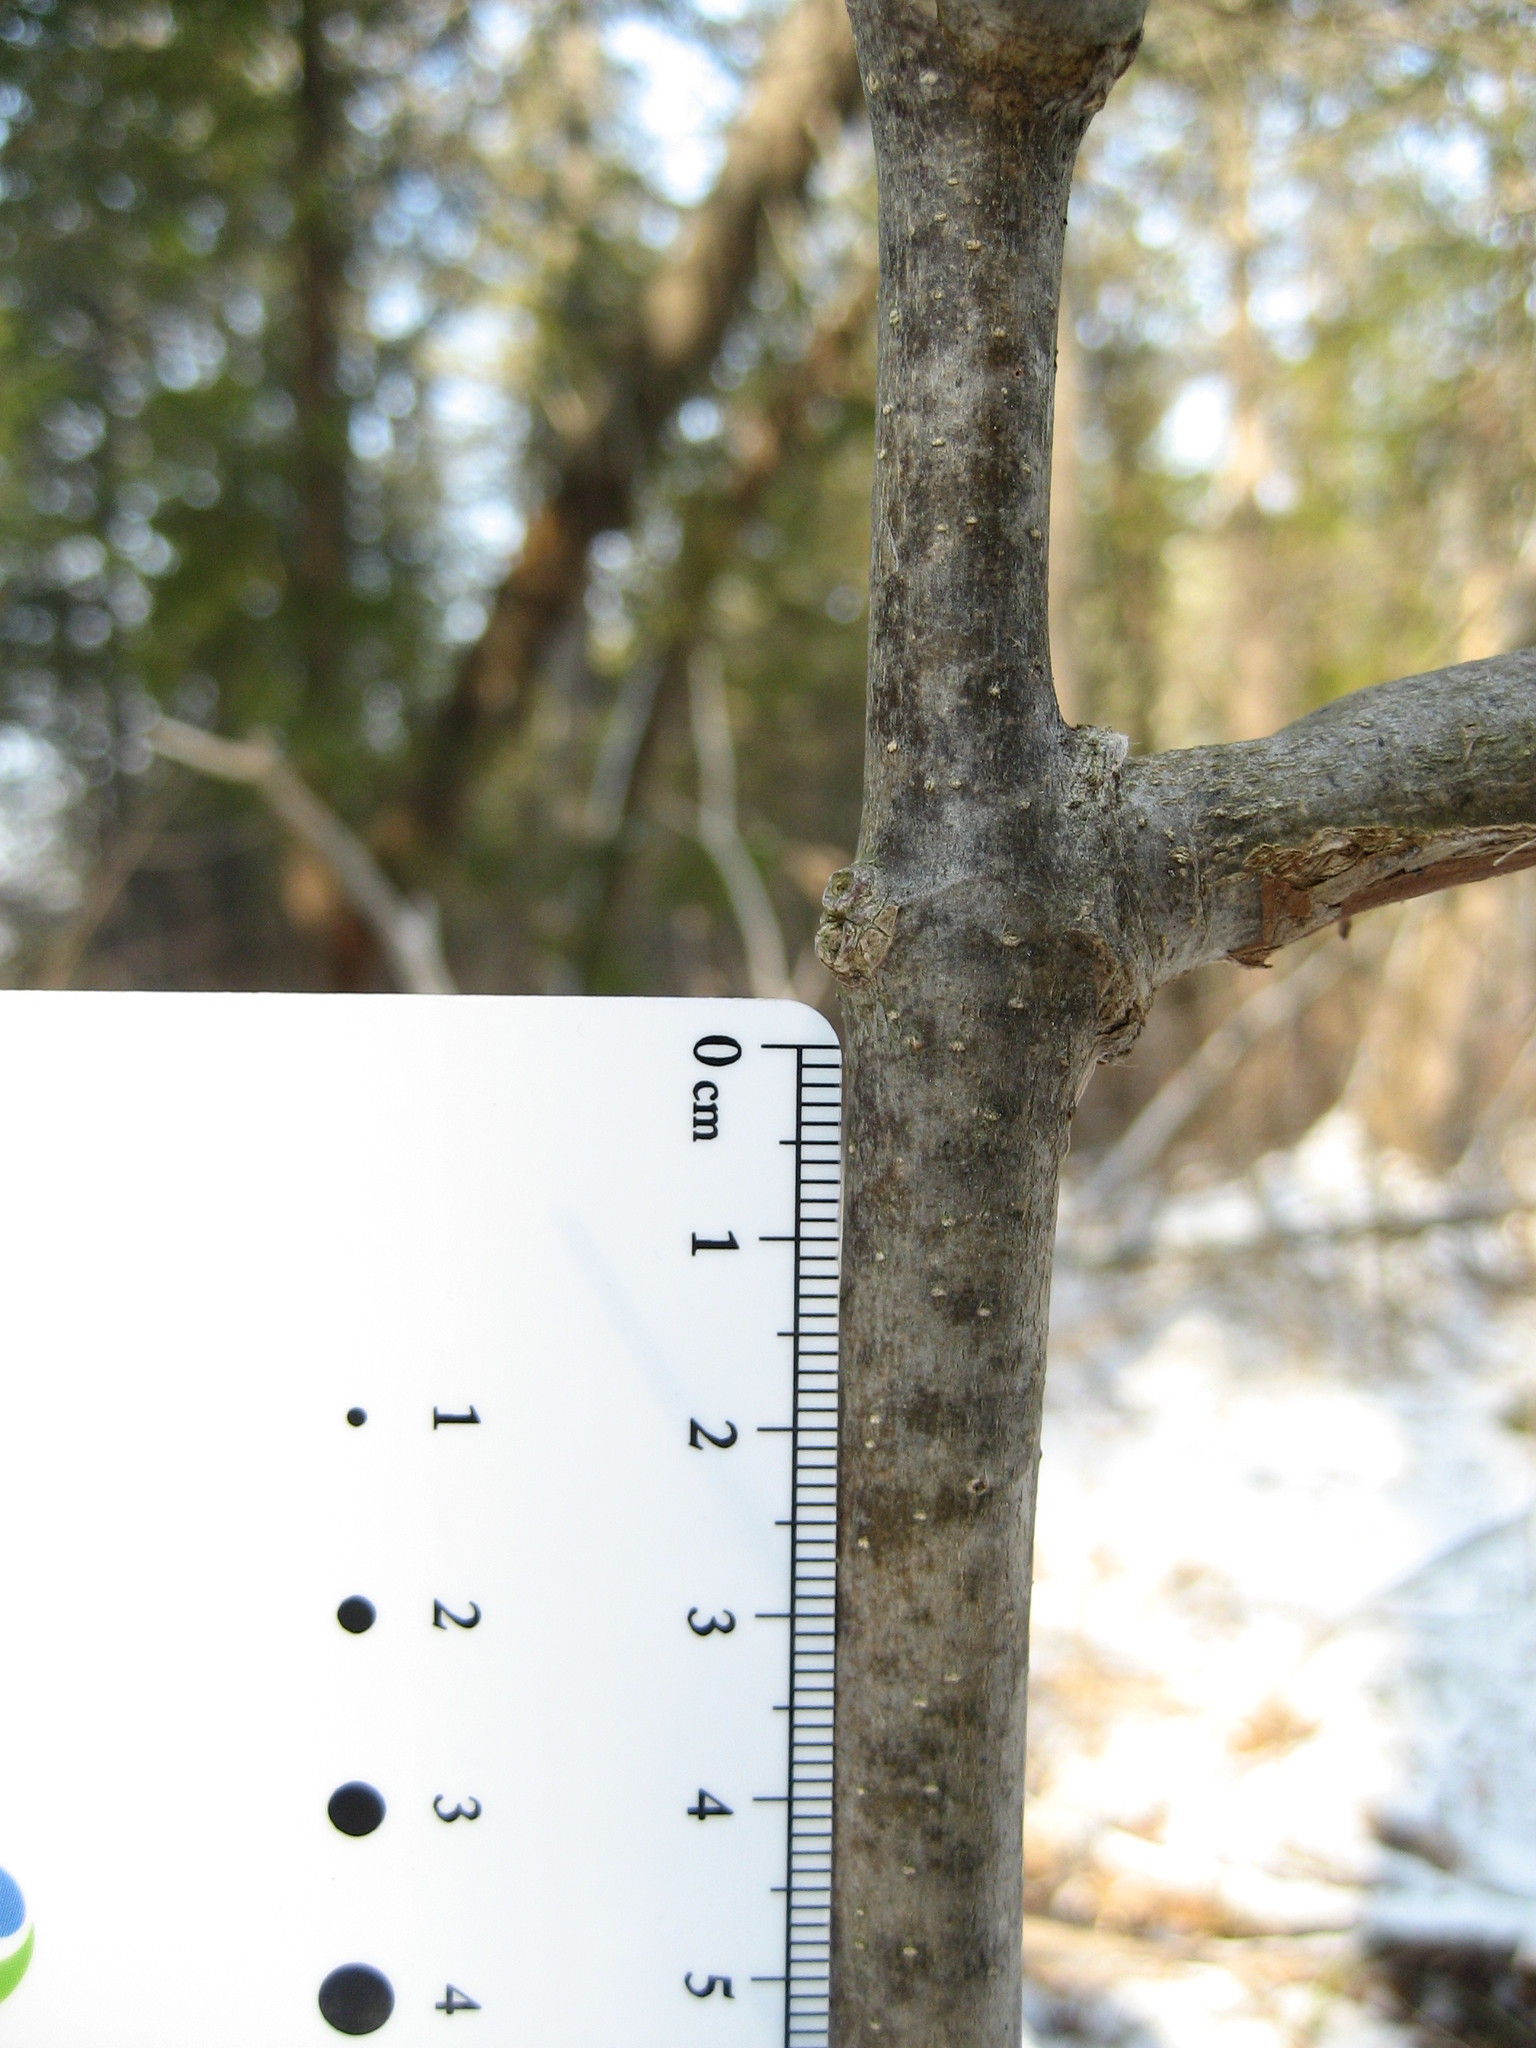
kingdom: Plantae
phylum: Tracheophyta
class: Magnoliopsida
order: Lamiales
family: Oleaceae
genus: Fraxinus
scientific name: Fraxinus americana
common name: White ash
